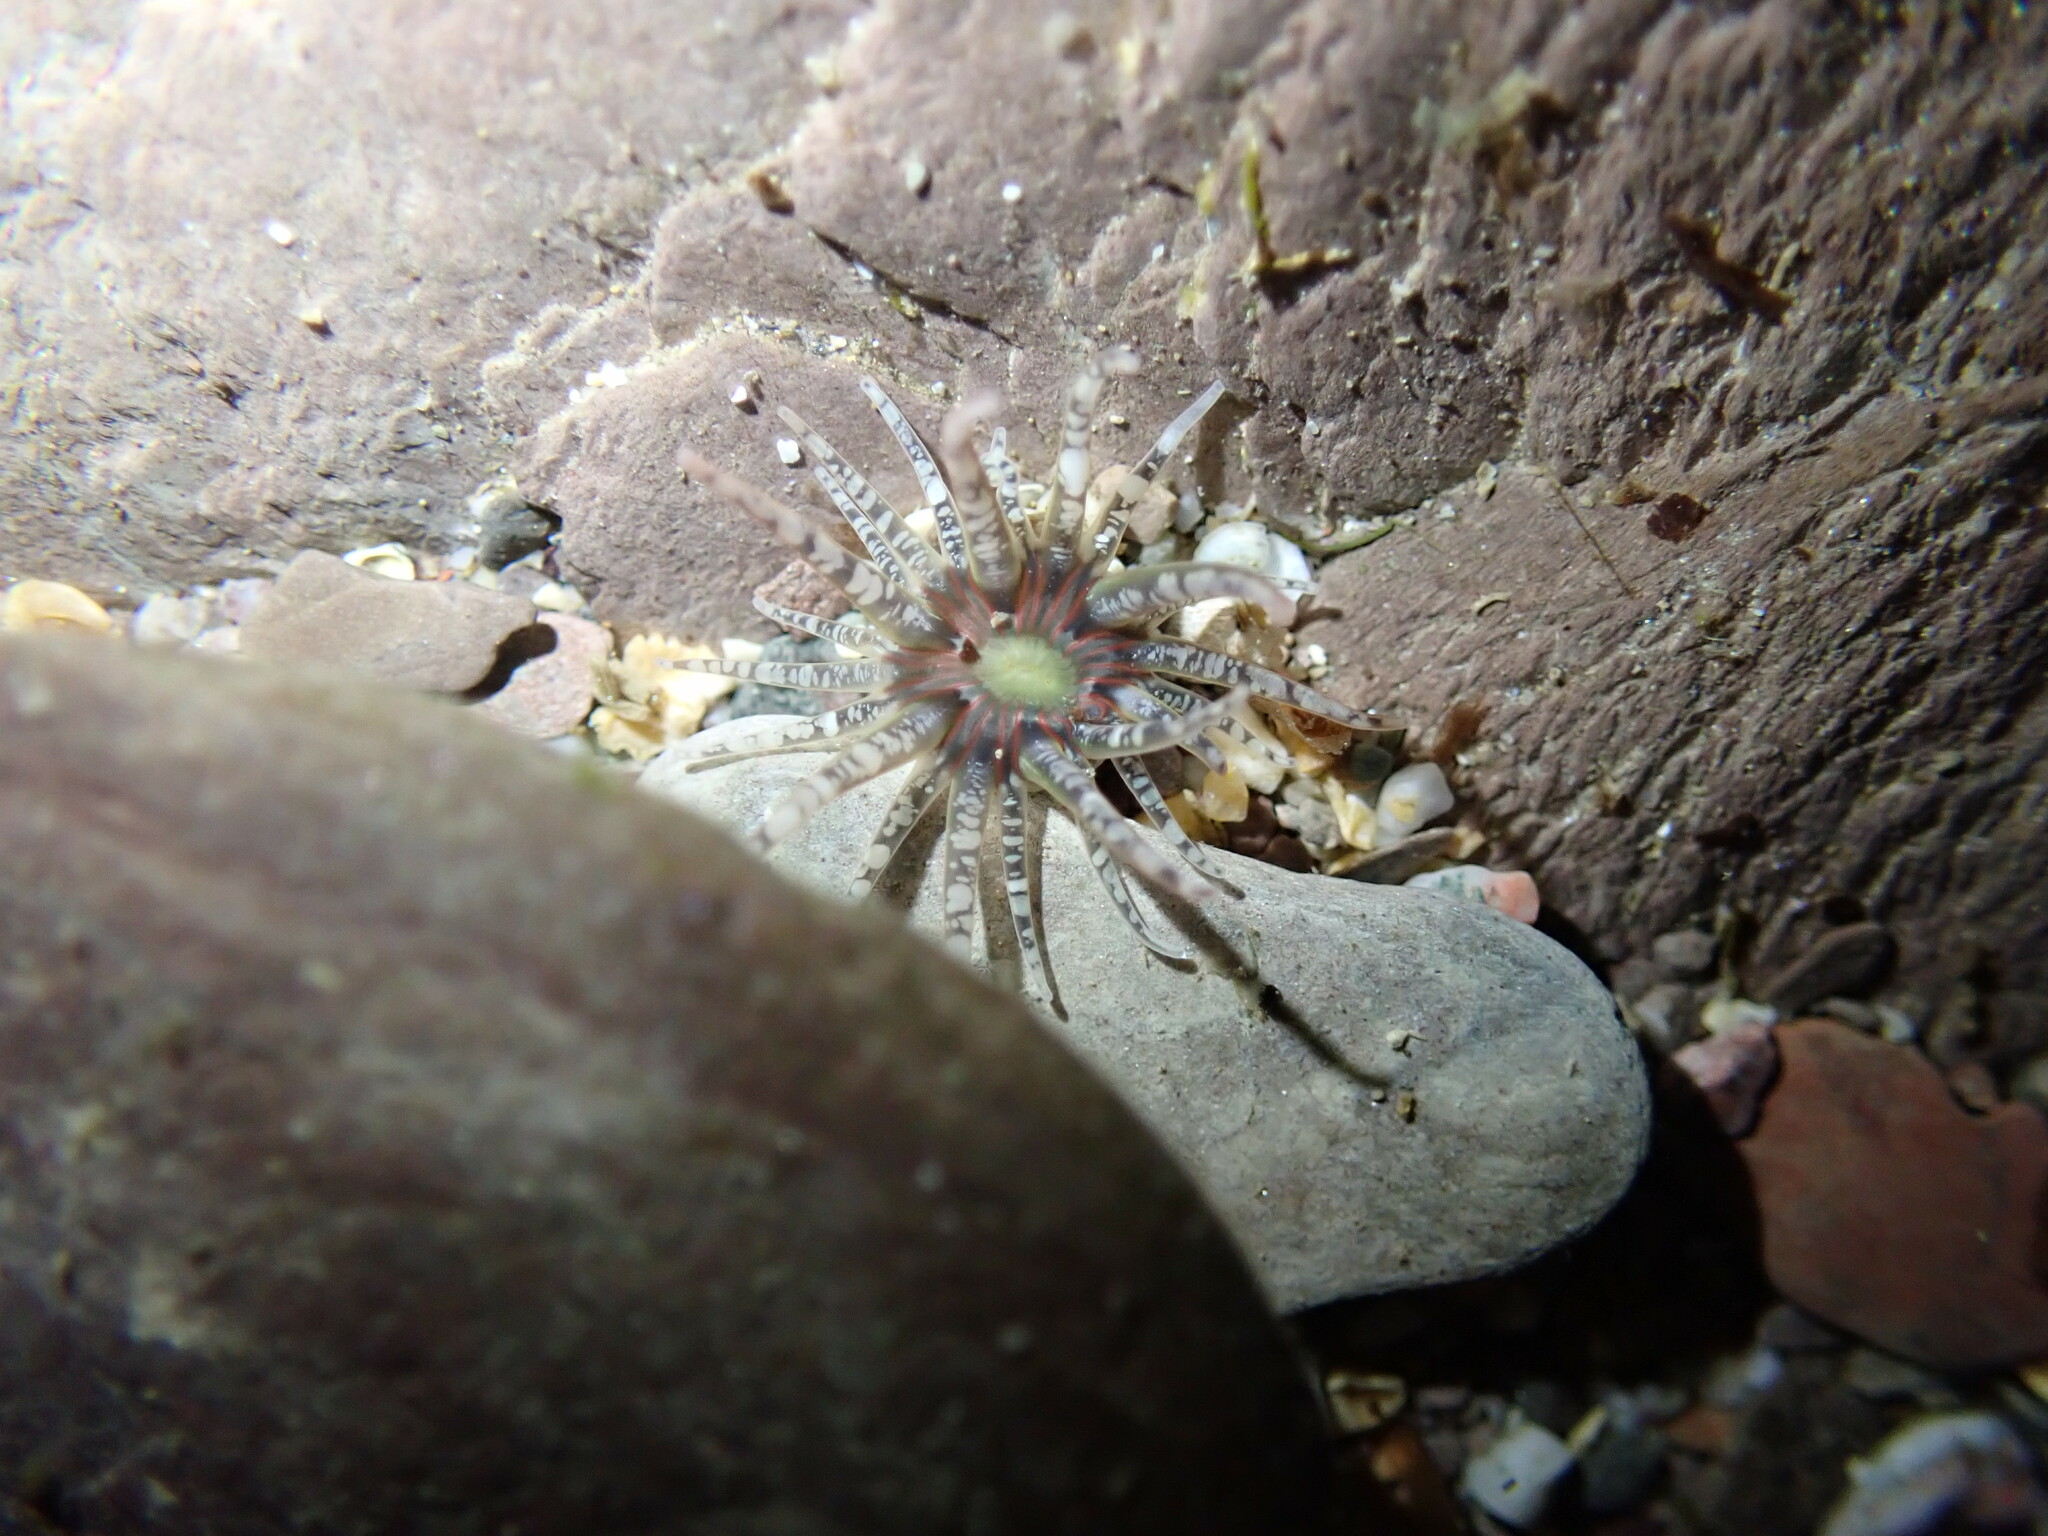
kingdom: Animalia
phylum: Cnidaria
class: Anthozoa
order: Actiniaria
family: Actiniidae
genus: Bunodactis
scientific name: Bunodactis verrucosa
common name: Gem anemone
